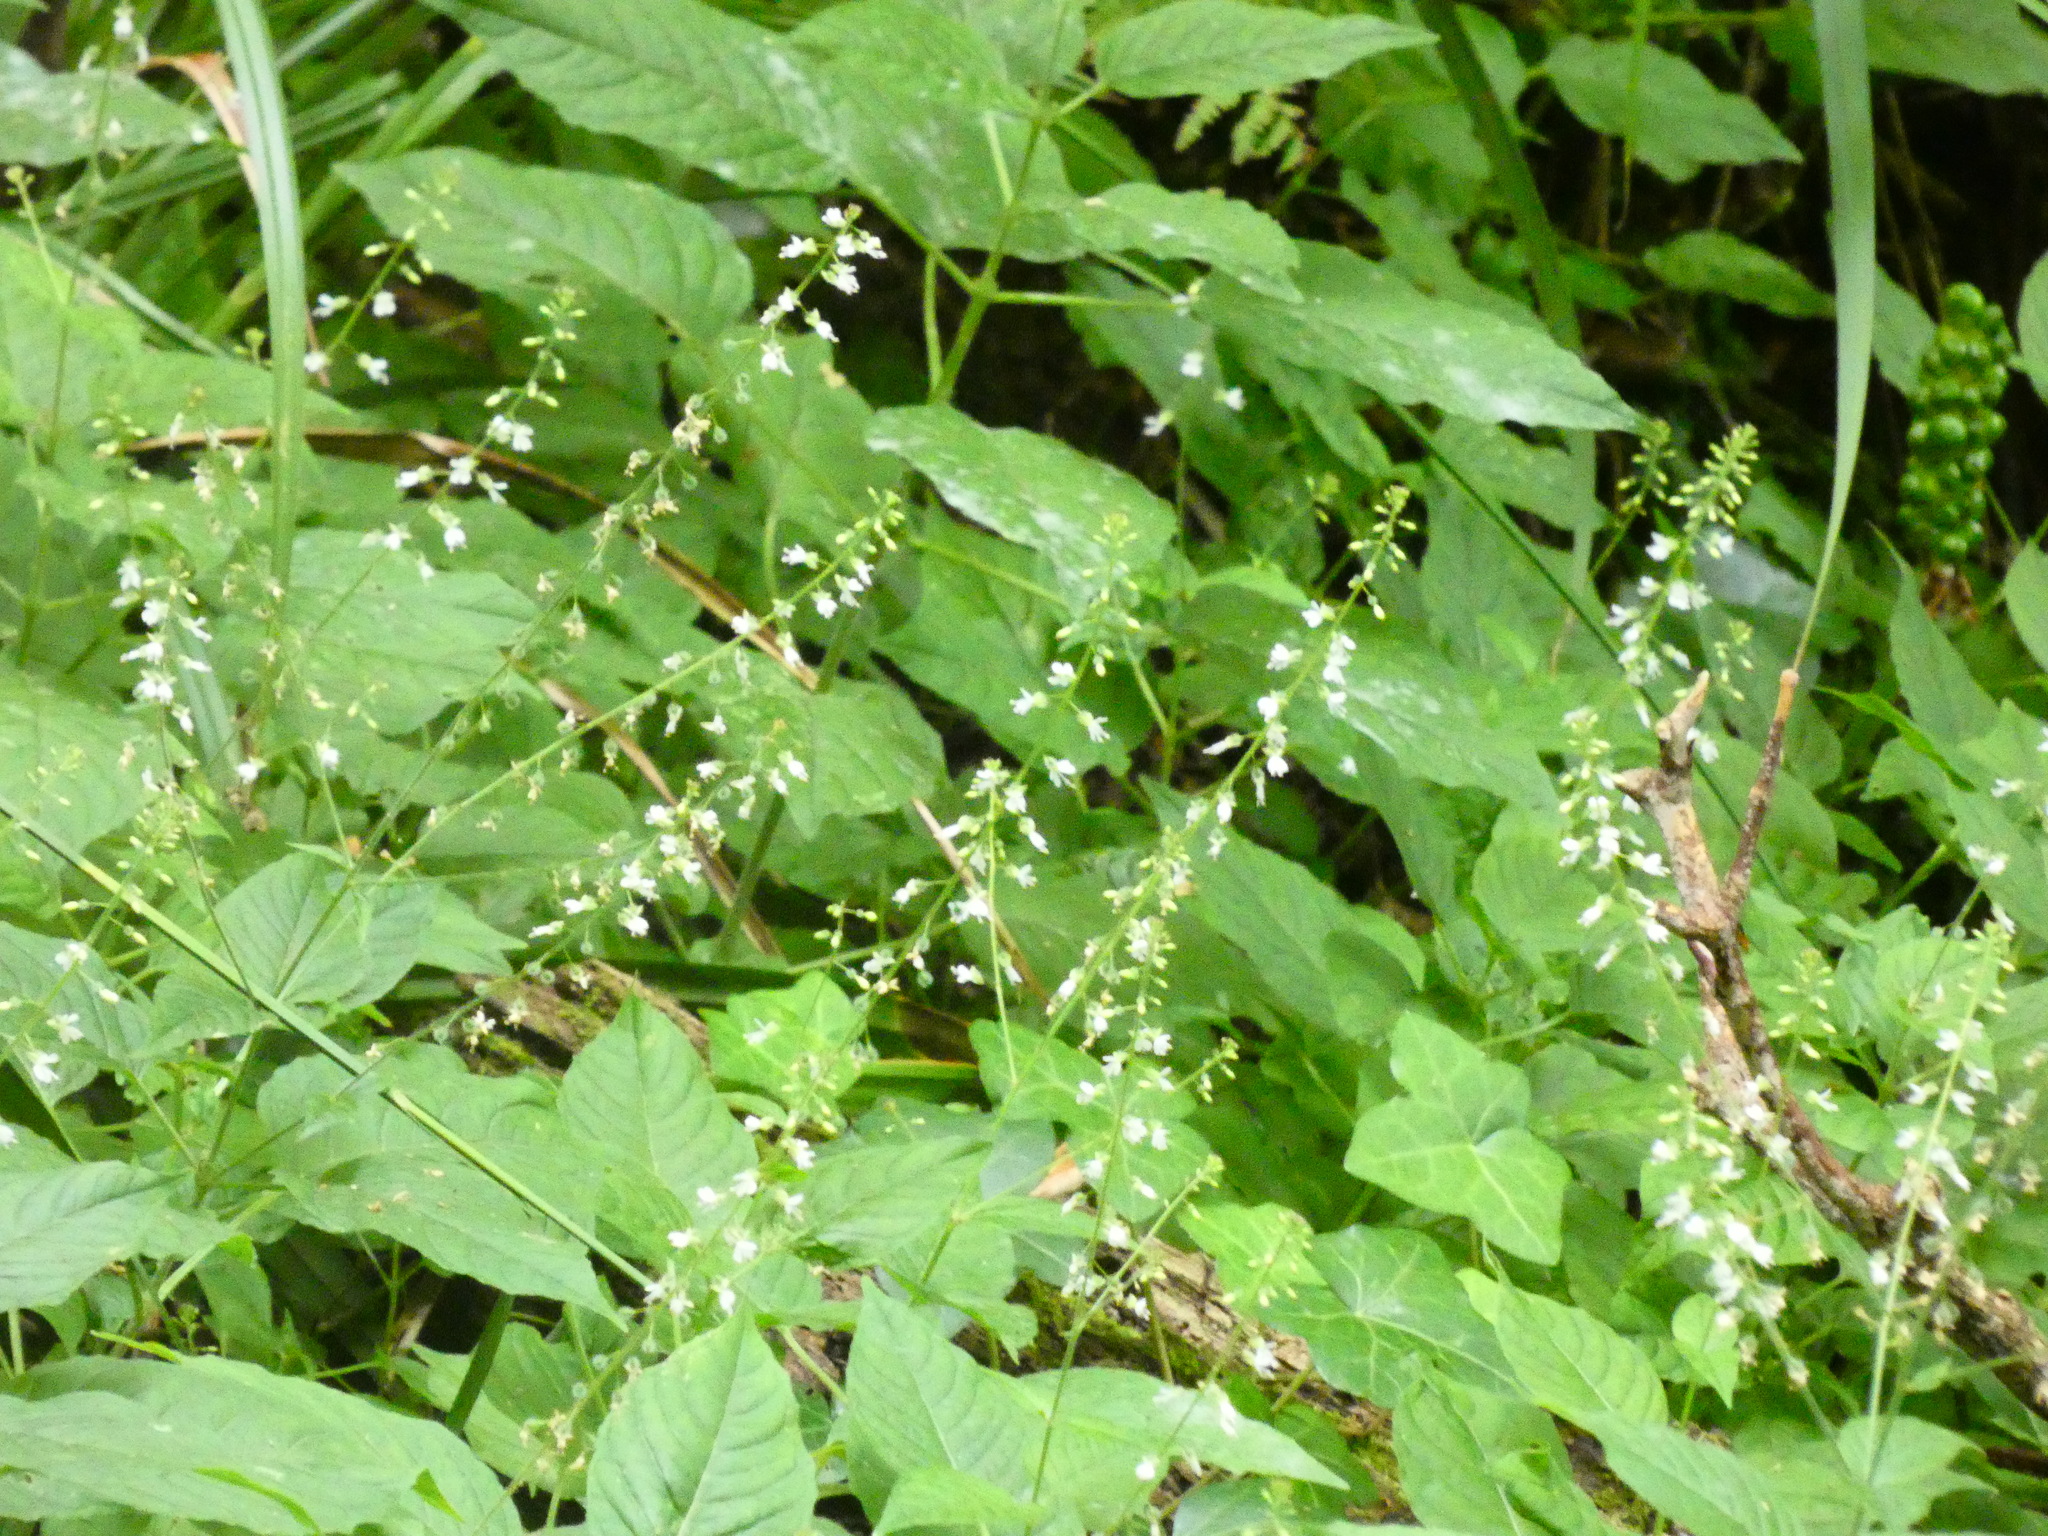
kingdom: Plantae
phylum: Tracheophyta
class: Magnoliopsida
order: Myrtales
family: Onagraceae
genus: Circaea
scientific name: Circaea lutetiana
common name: Enchanter's-nightshade
